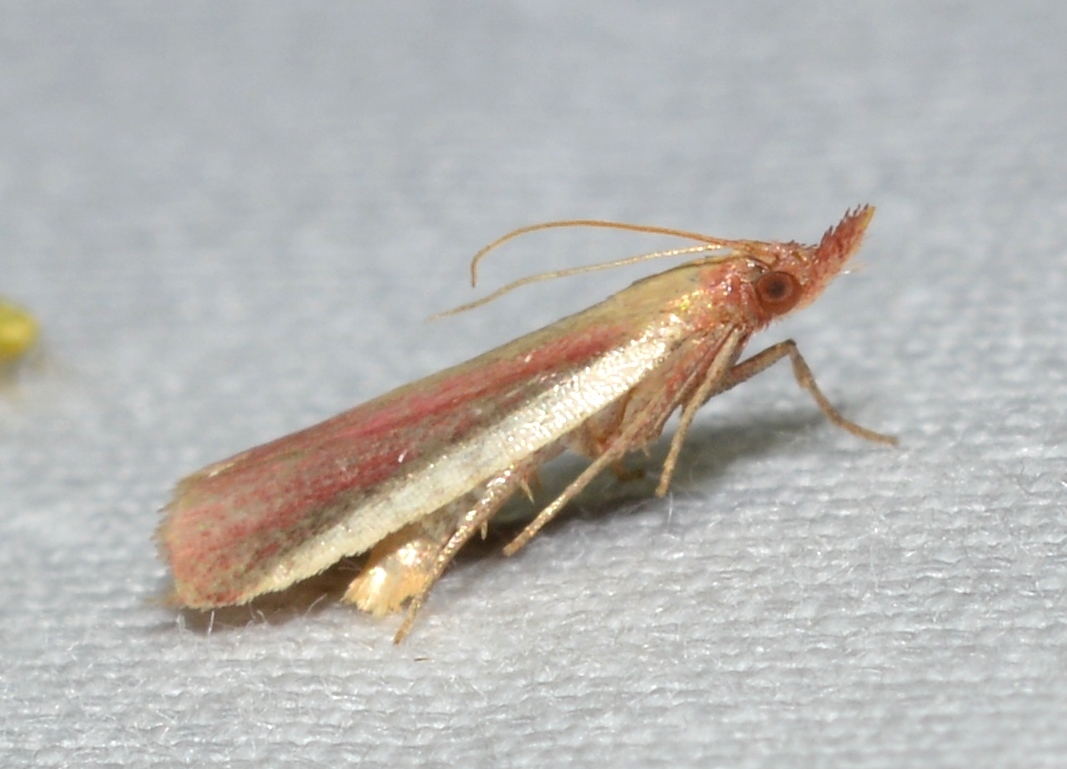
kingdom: Animalia
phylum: Arthropoda
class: Insecta
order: Lepidoptera
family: Pyralidae
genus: Peoria
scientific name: Peoria approximella
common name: Carmine snout
